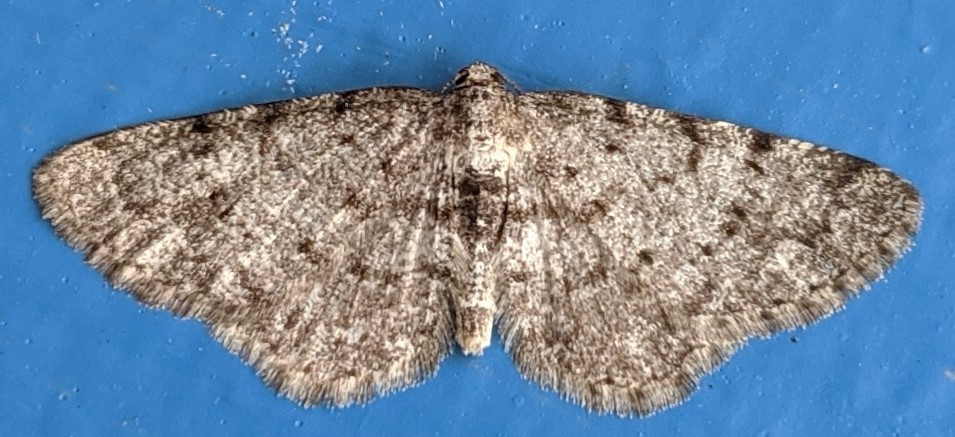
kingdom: Animalia
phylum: Arthropoda
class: Insecta
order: Lepidoptera
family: Geometridae
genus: Aethalura
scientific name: Aethalura intertexta
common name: Four-barred gray
